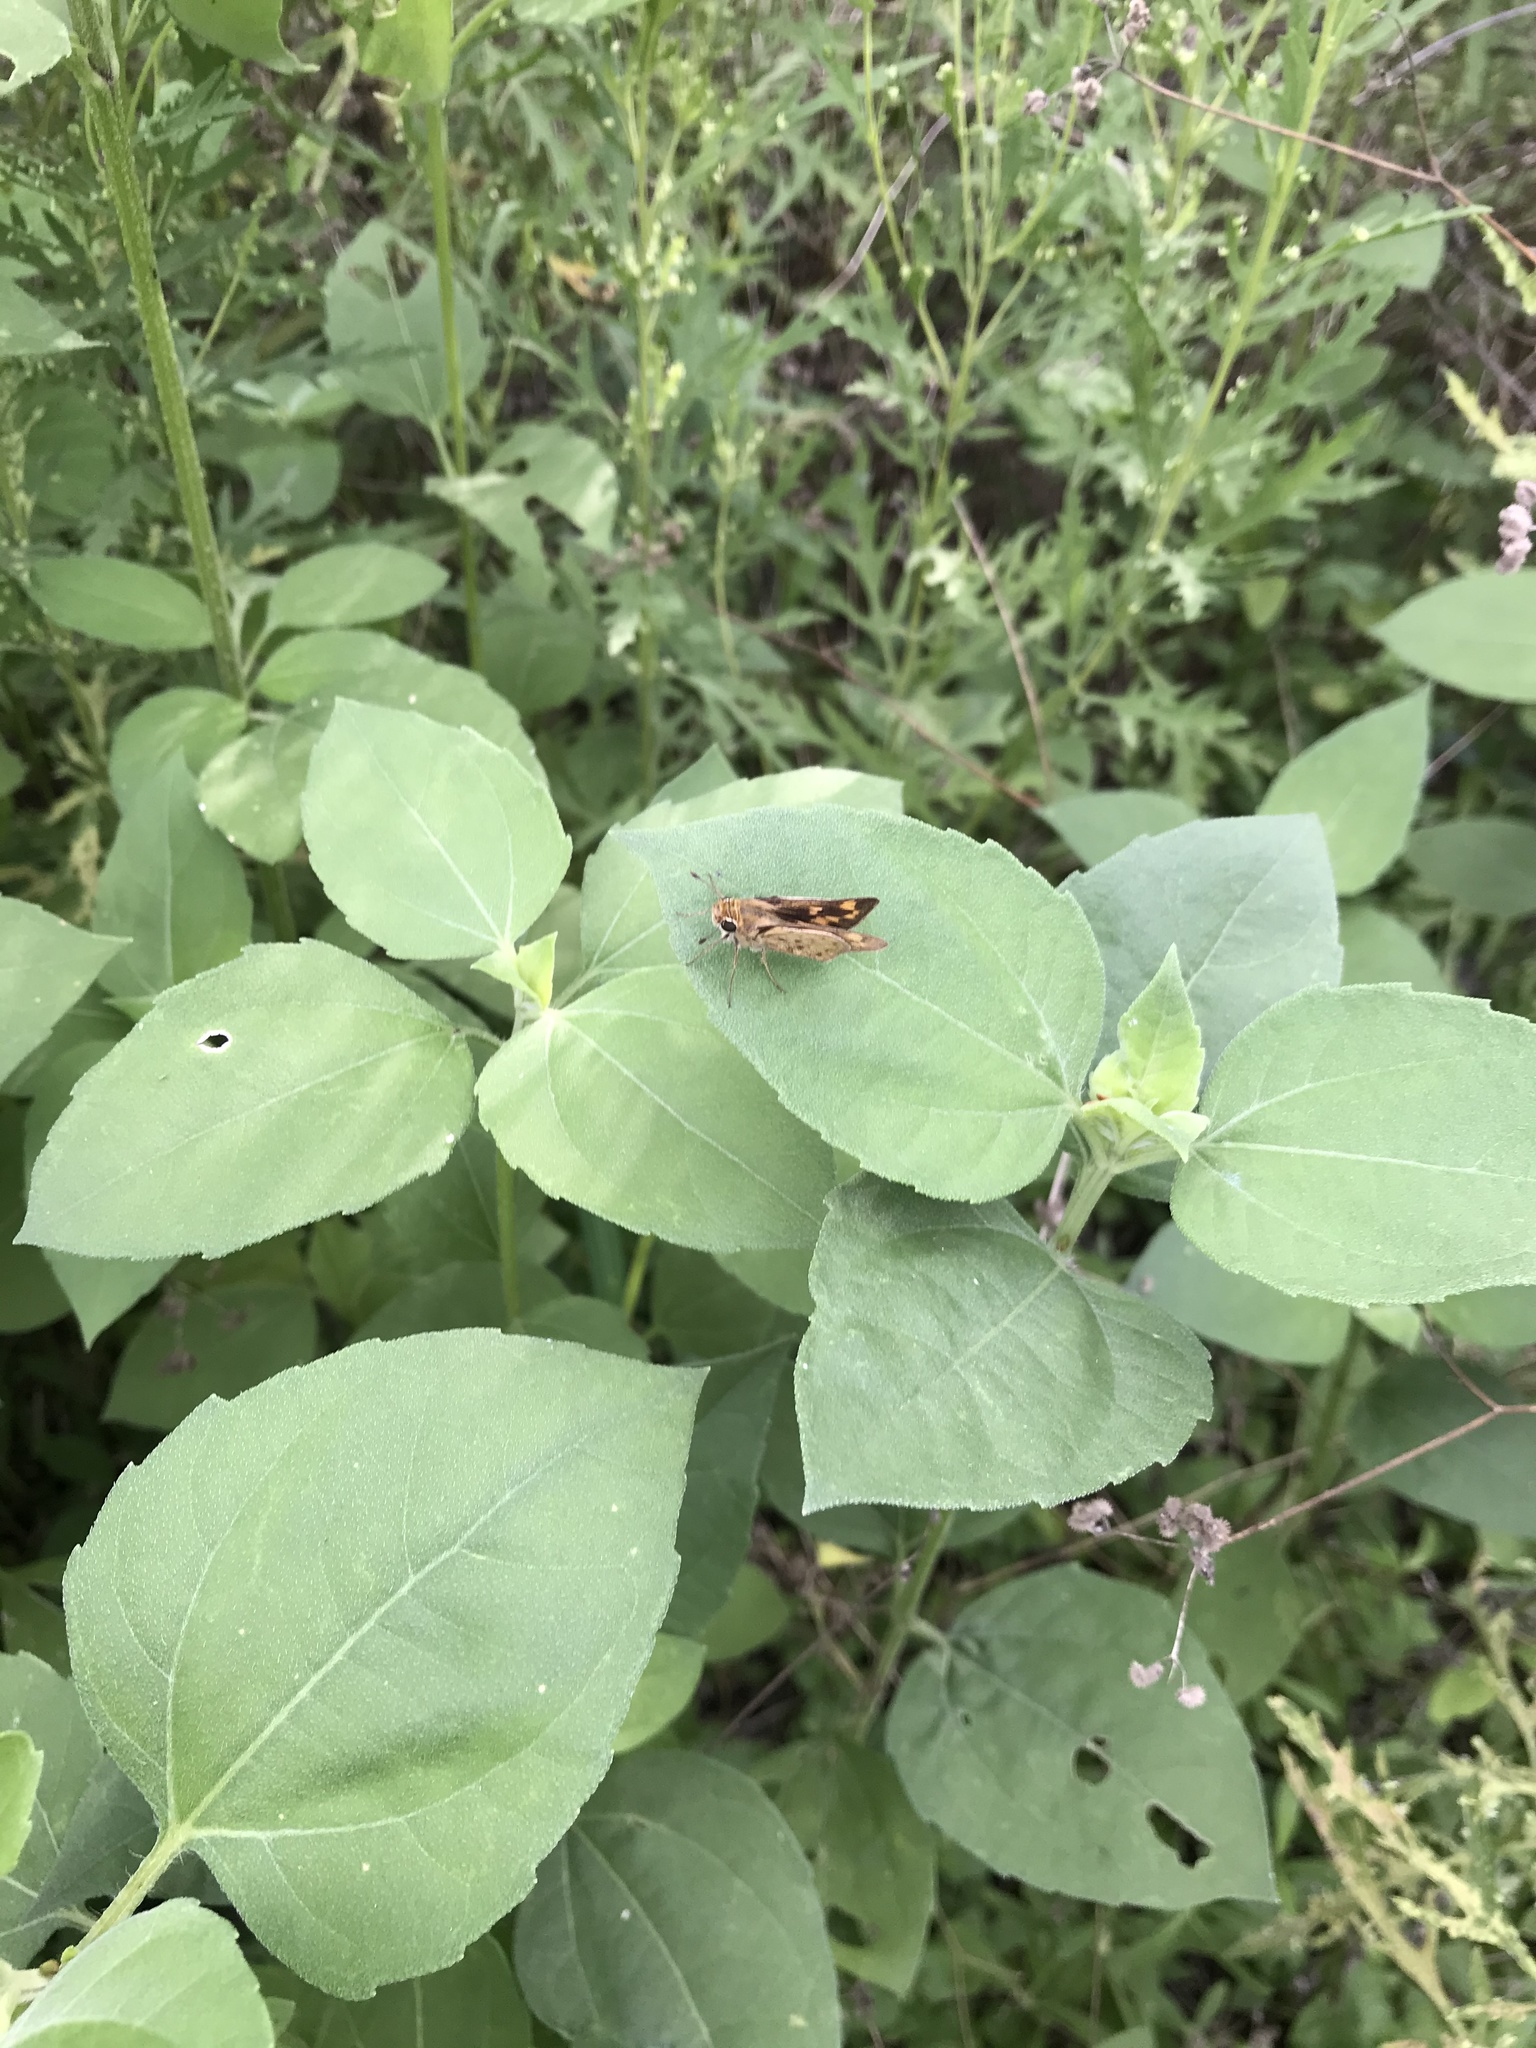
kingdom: Animalia
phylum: Arthropoda
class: Insecta
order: Lepidoptera
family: Hesperiidae
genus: Hylephila
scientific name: Hylephila phyleus
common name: Fiery skipper
